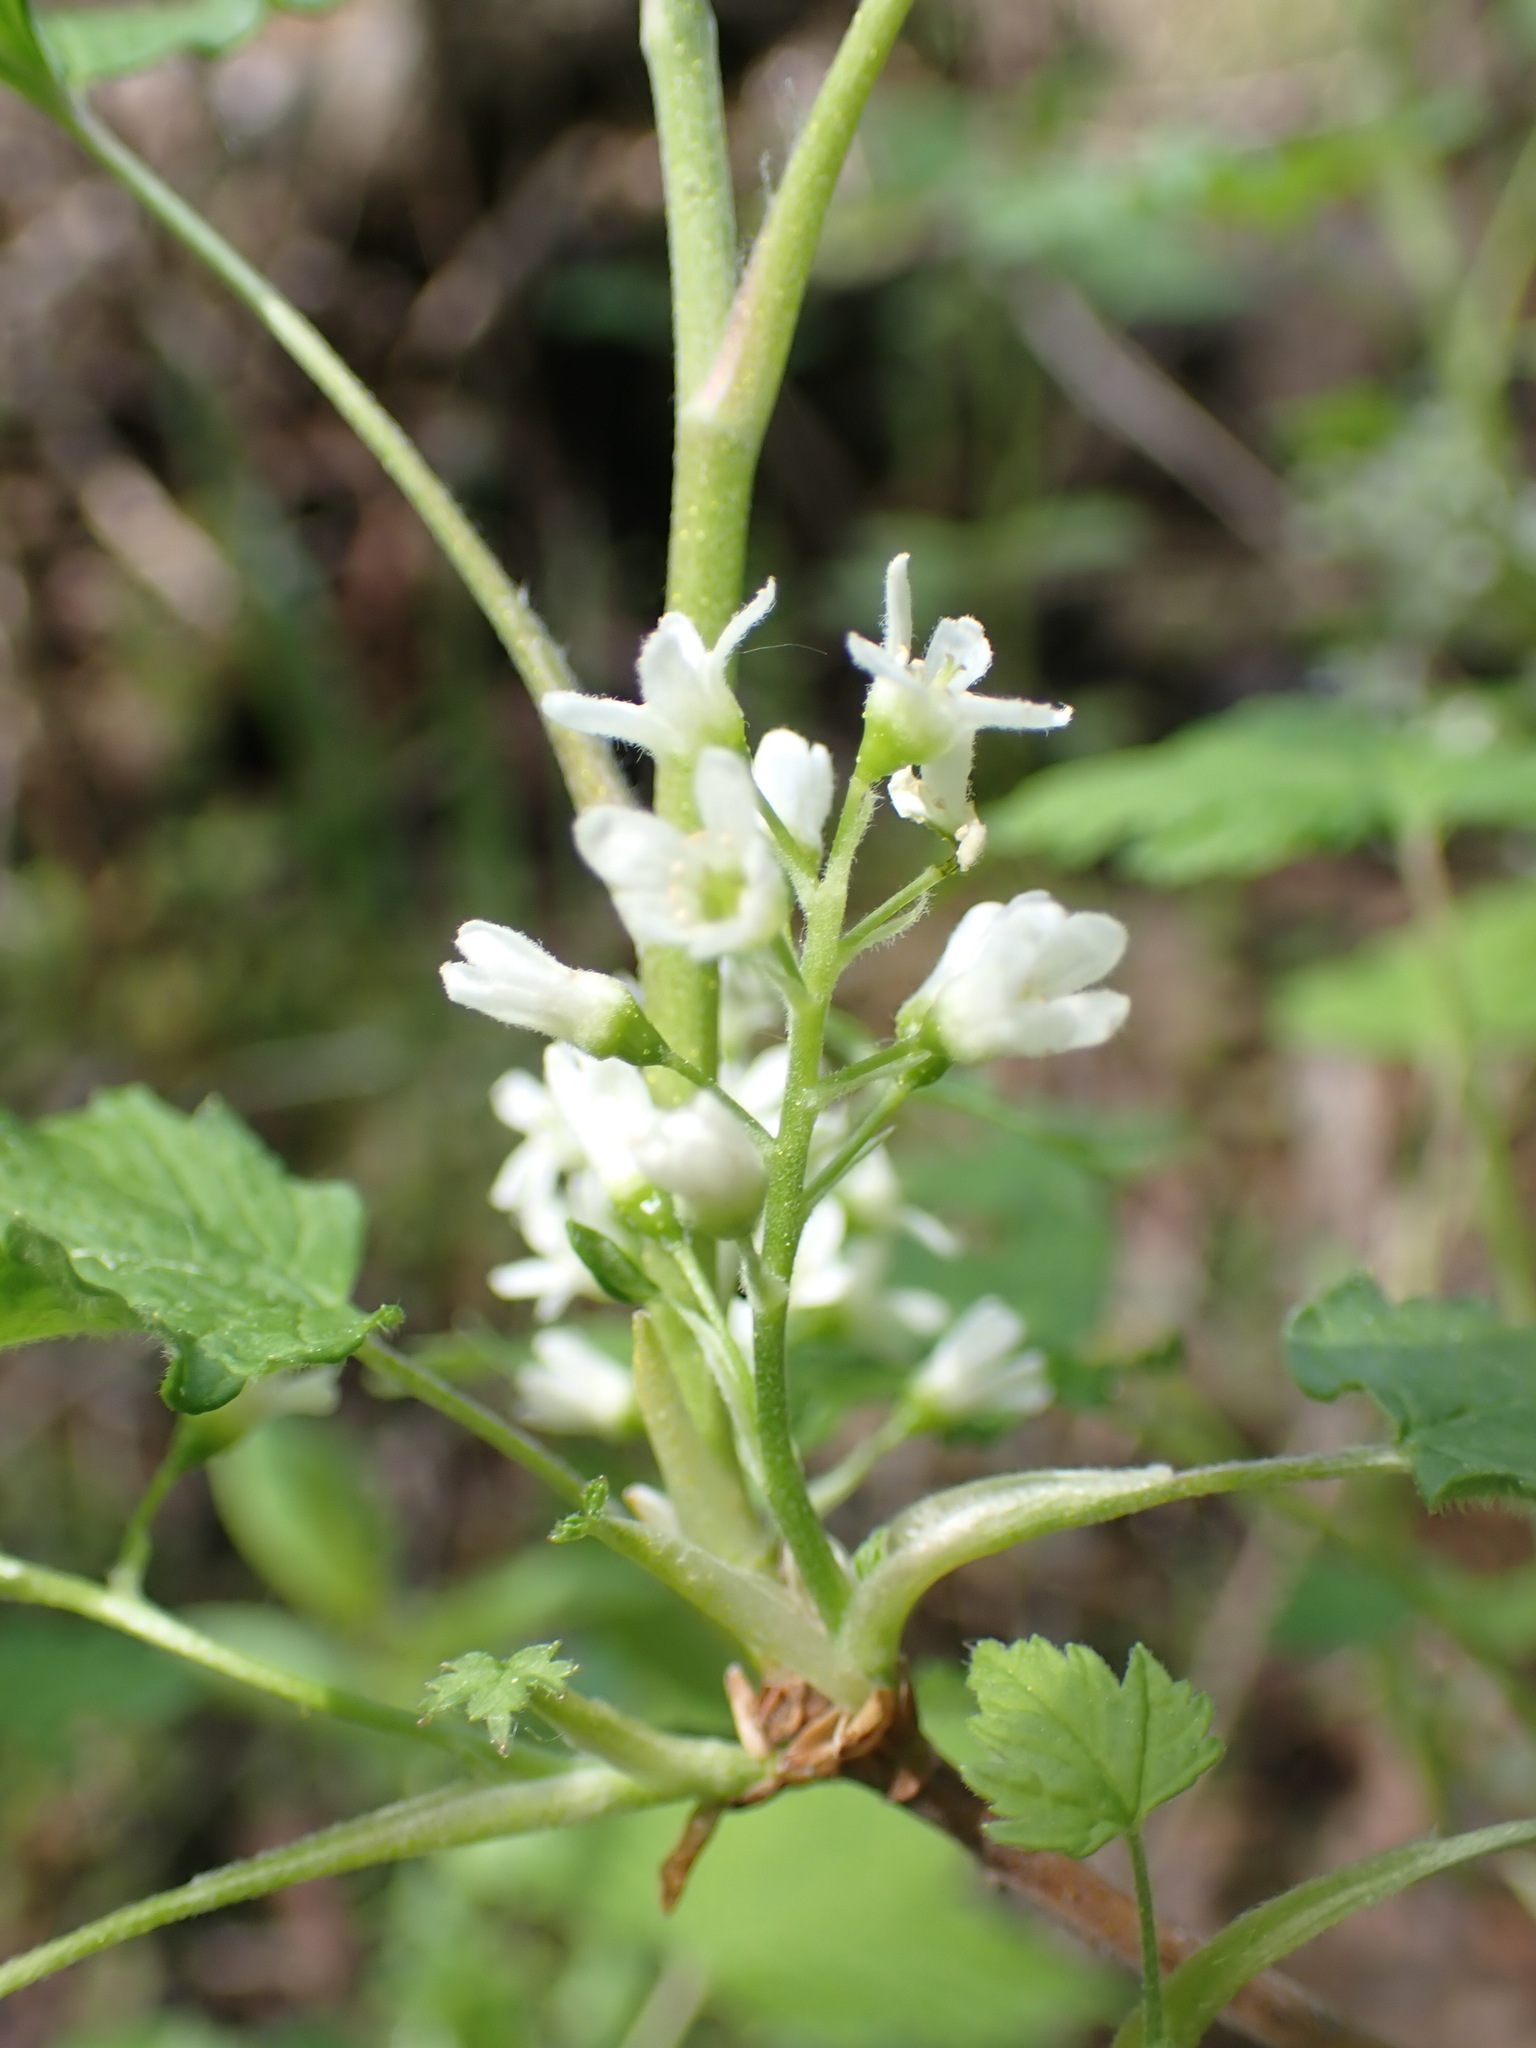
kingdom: Plantae
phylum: Tracheophyta
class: Magnoliopsida
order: Saxifragales
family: Grossulariaceae
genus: Ribes
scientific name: Ribes hudsonianum
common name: Northern black currant
